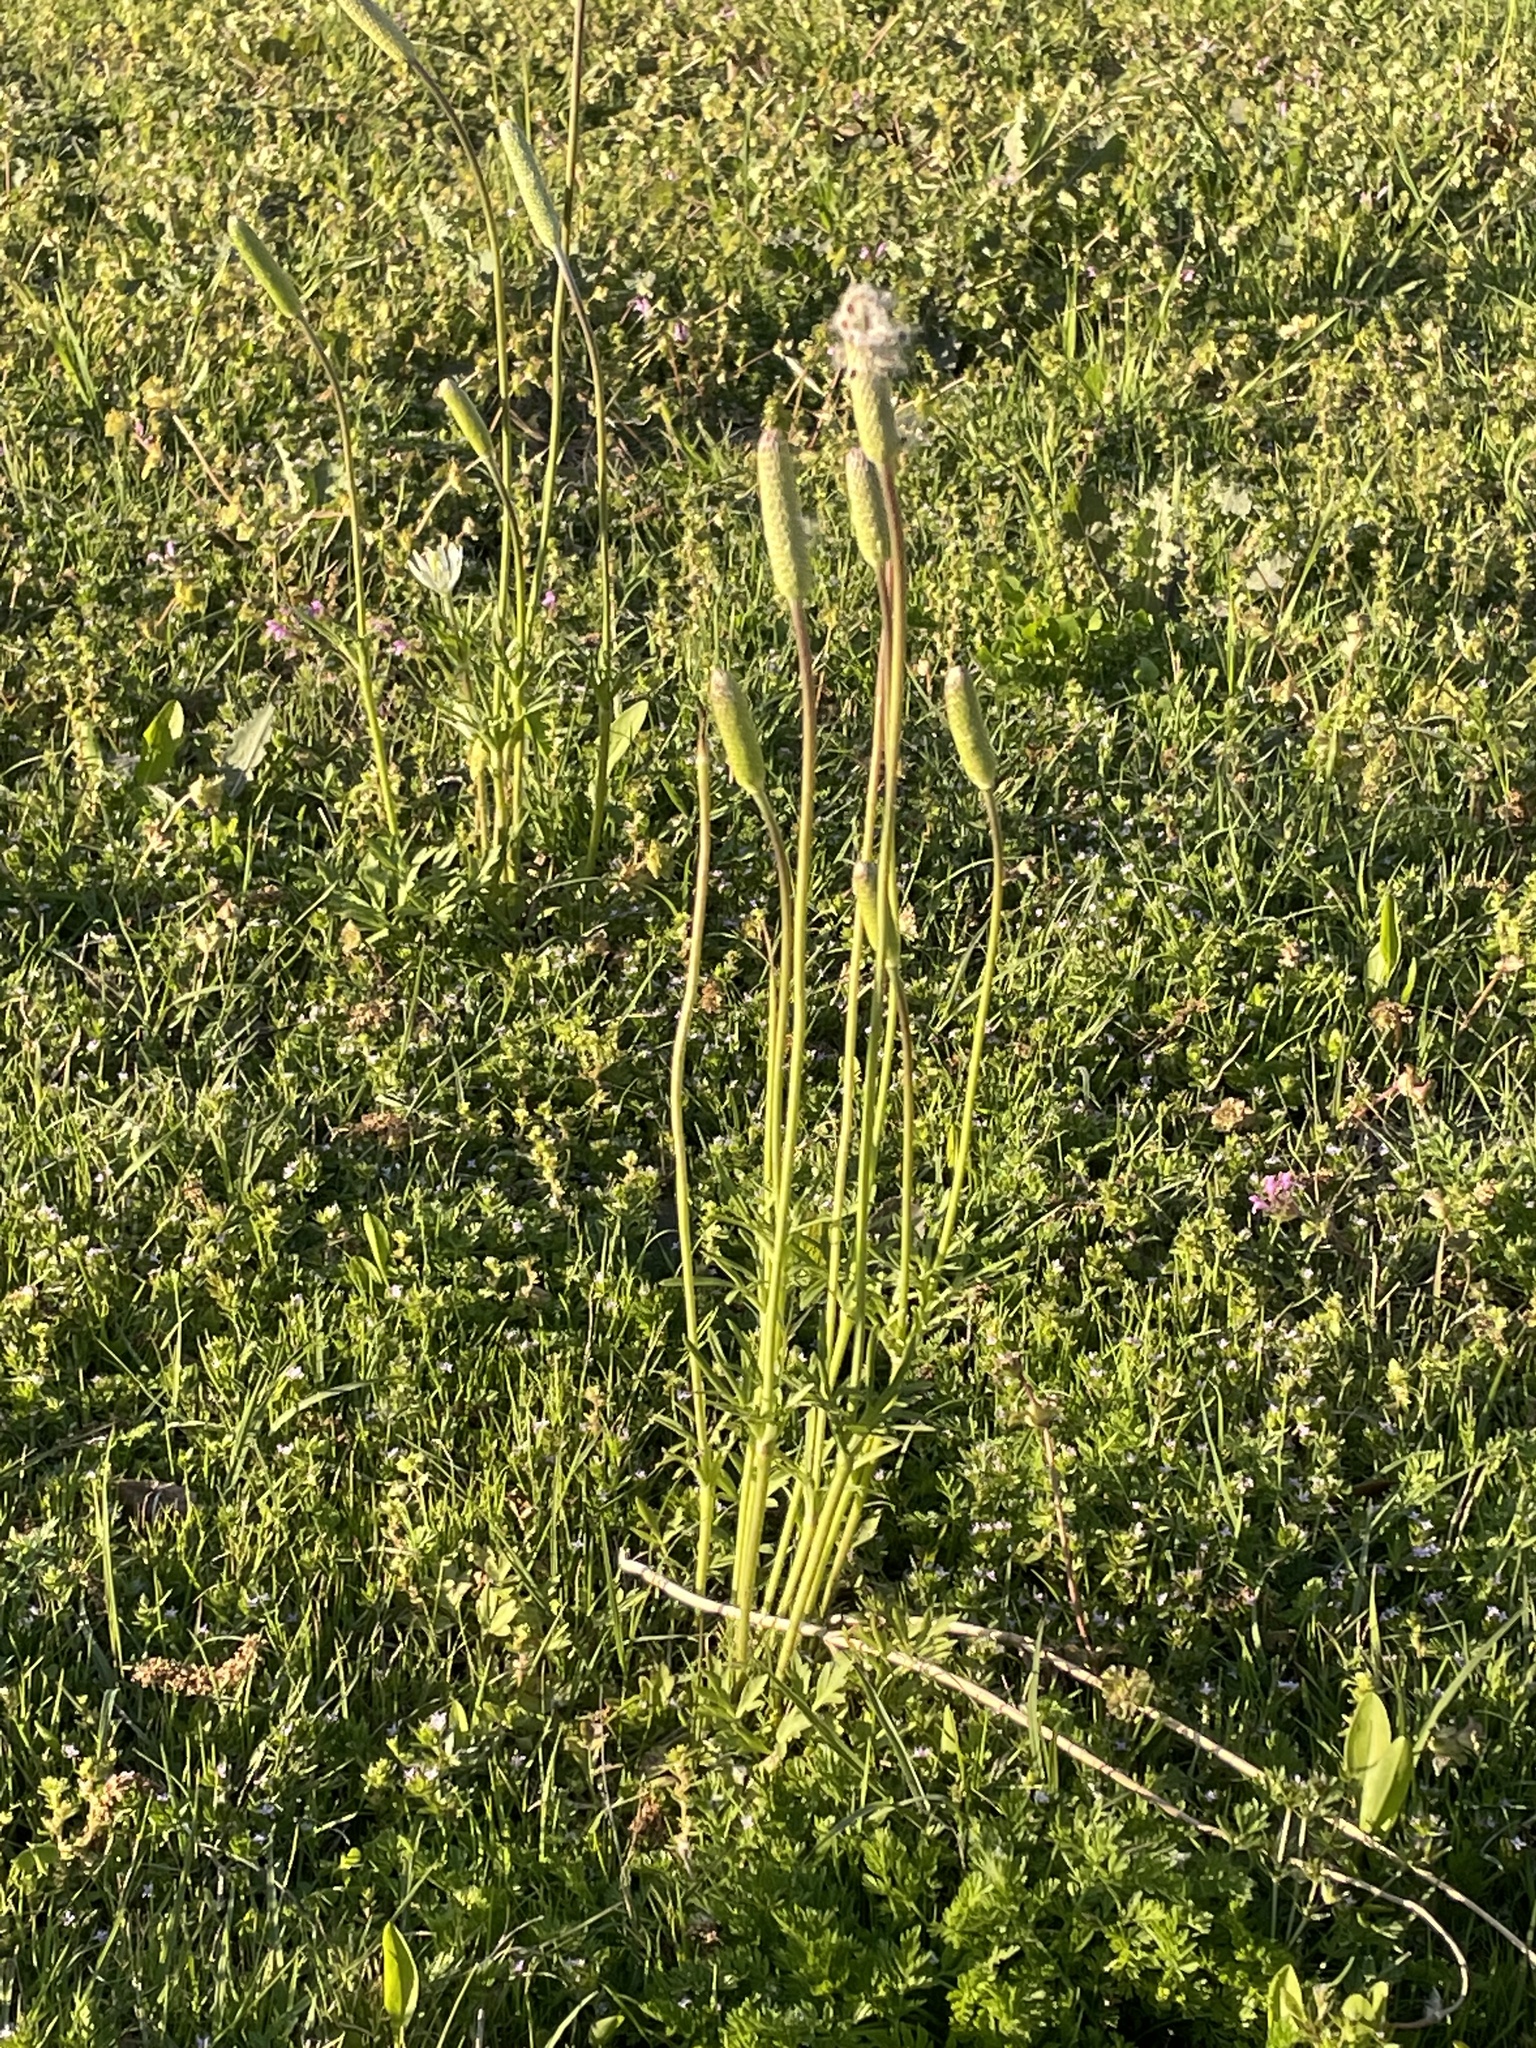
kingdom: Plantae
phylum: Tracheophyta
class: Magnoliopsida
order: Ranunculales
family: Ranunculaceae
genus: Anemone
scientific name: Anemone berlandieri
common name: Ten-petal anemone
